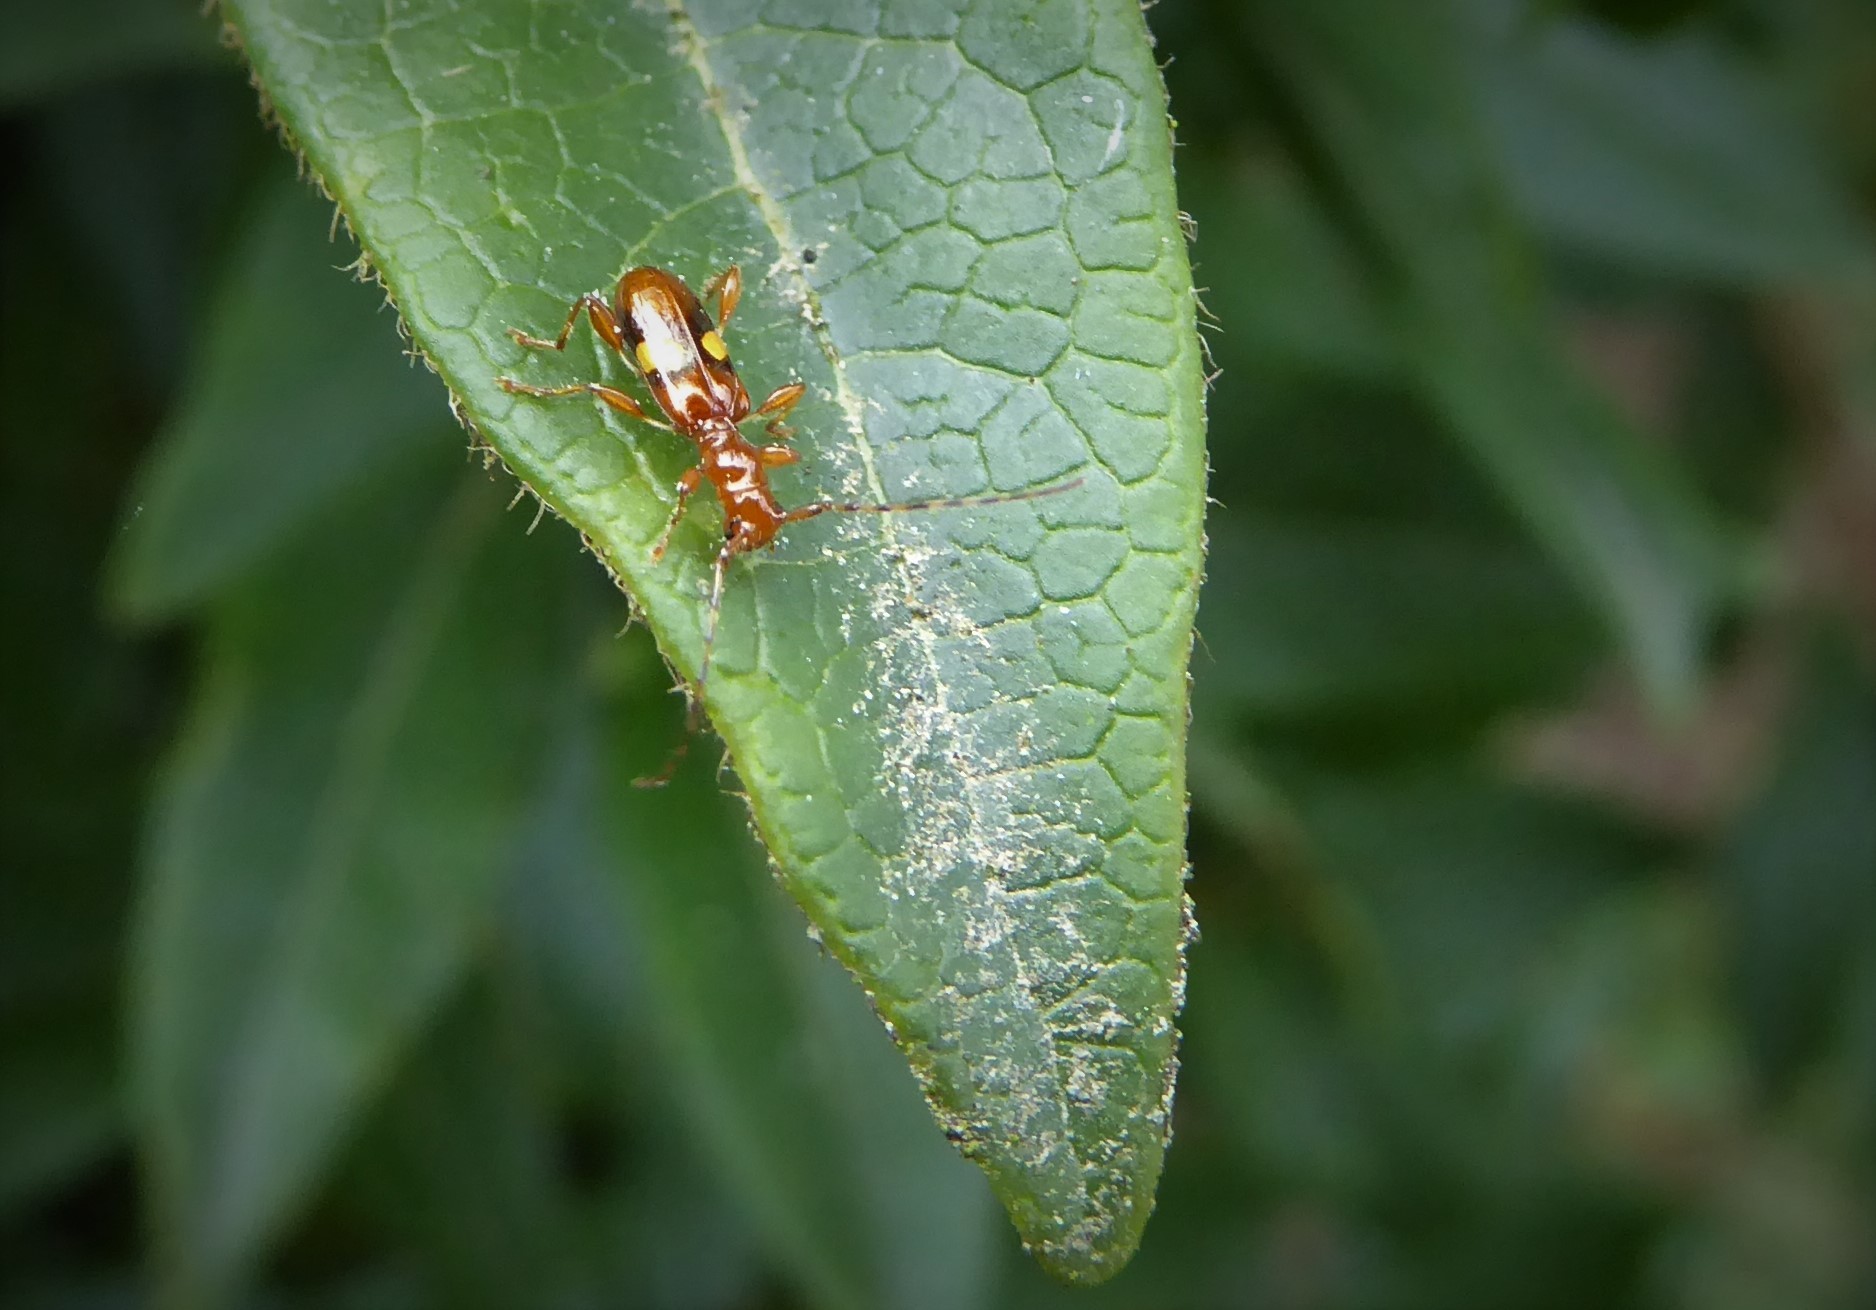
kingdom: Animalia
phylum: Arthropoda
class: Insecta
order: Coleoptera
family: Cerambycidae
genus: Zorion
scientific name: Zorion australe
